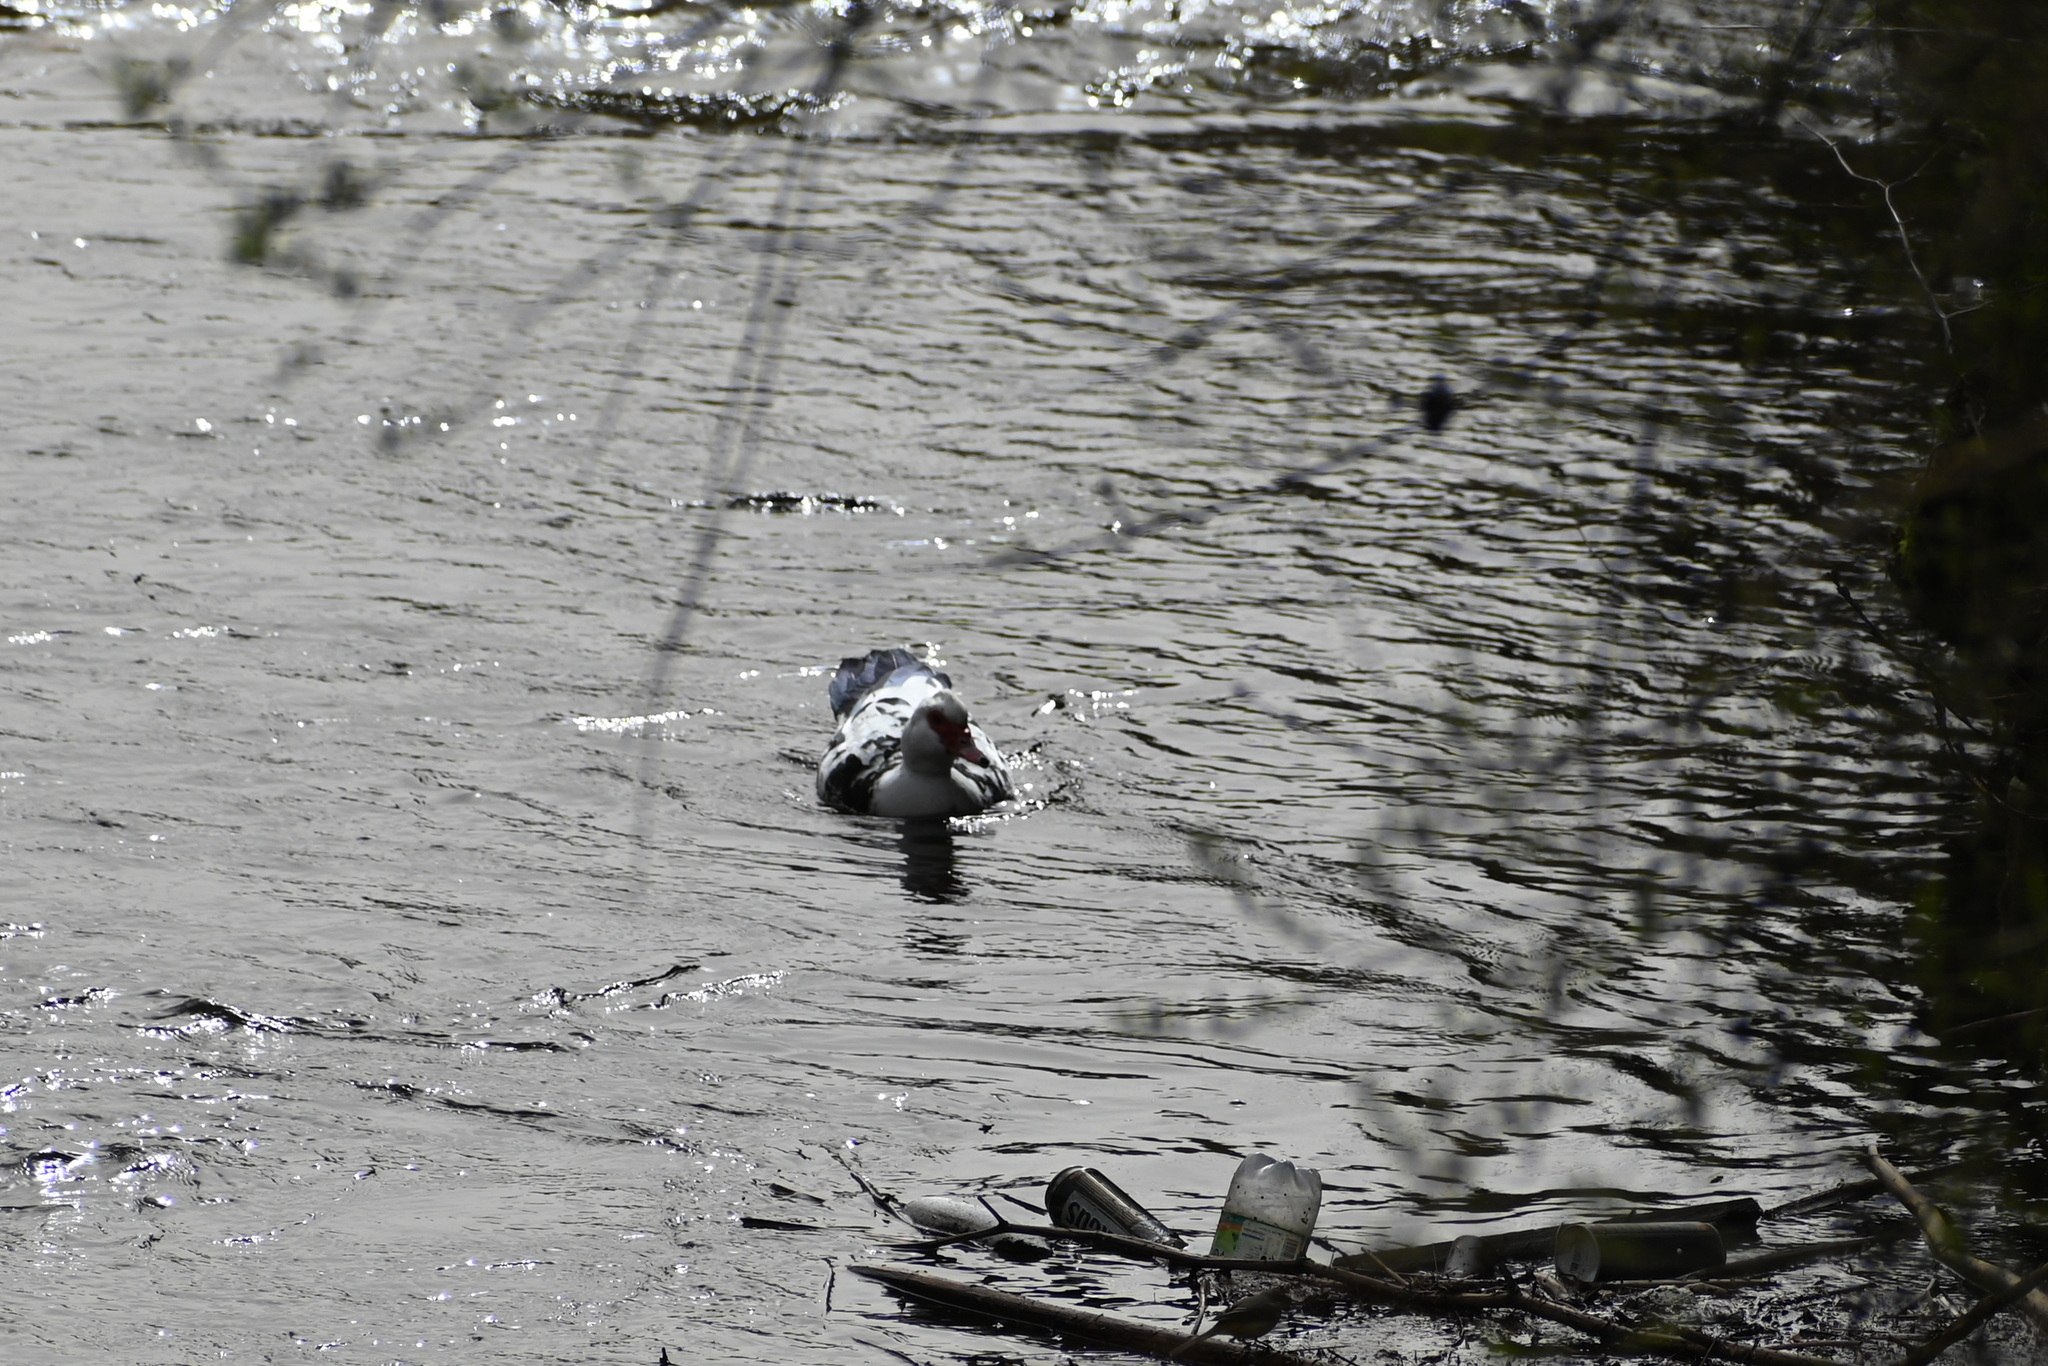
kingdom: Animalia
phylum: Chordata
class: Aves
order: Anseriformes
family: Anatidae
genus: Cairina
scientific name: Cairina moschata
